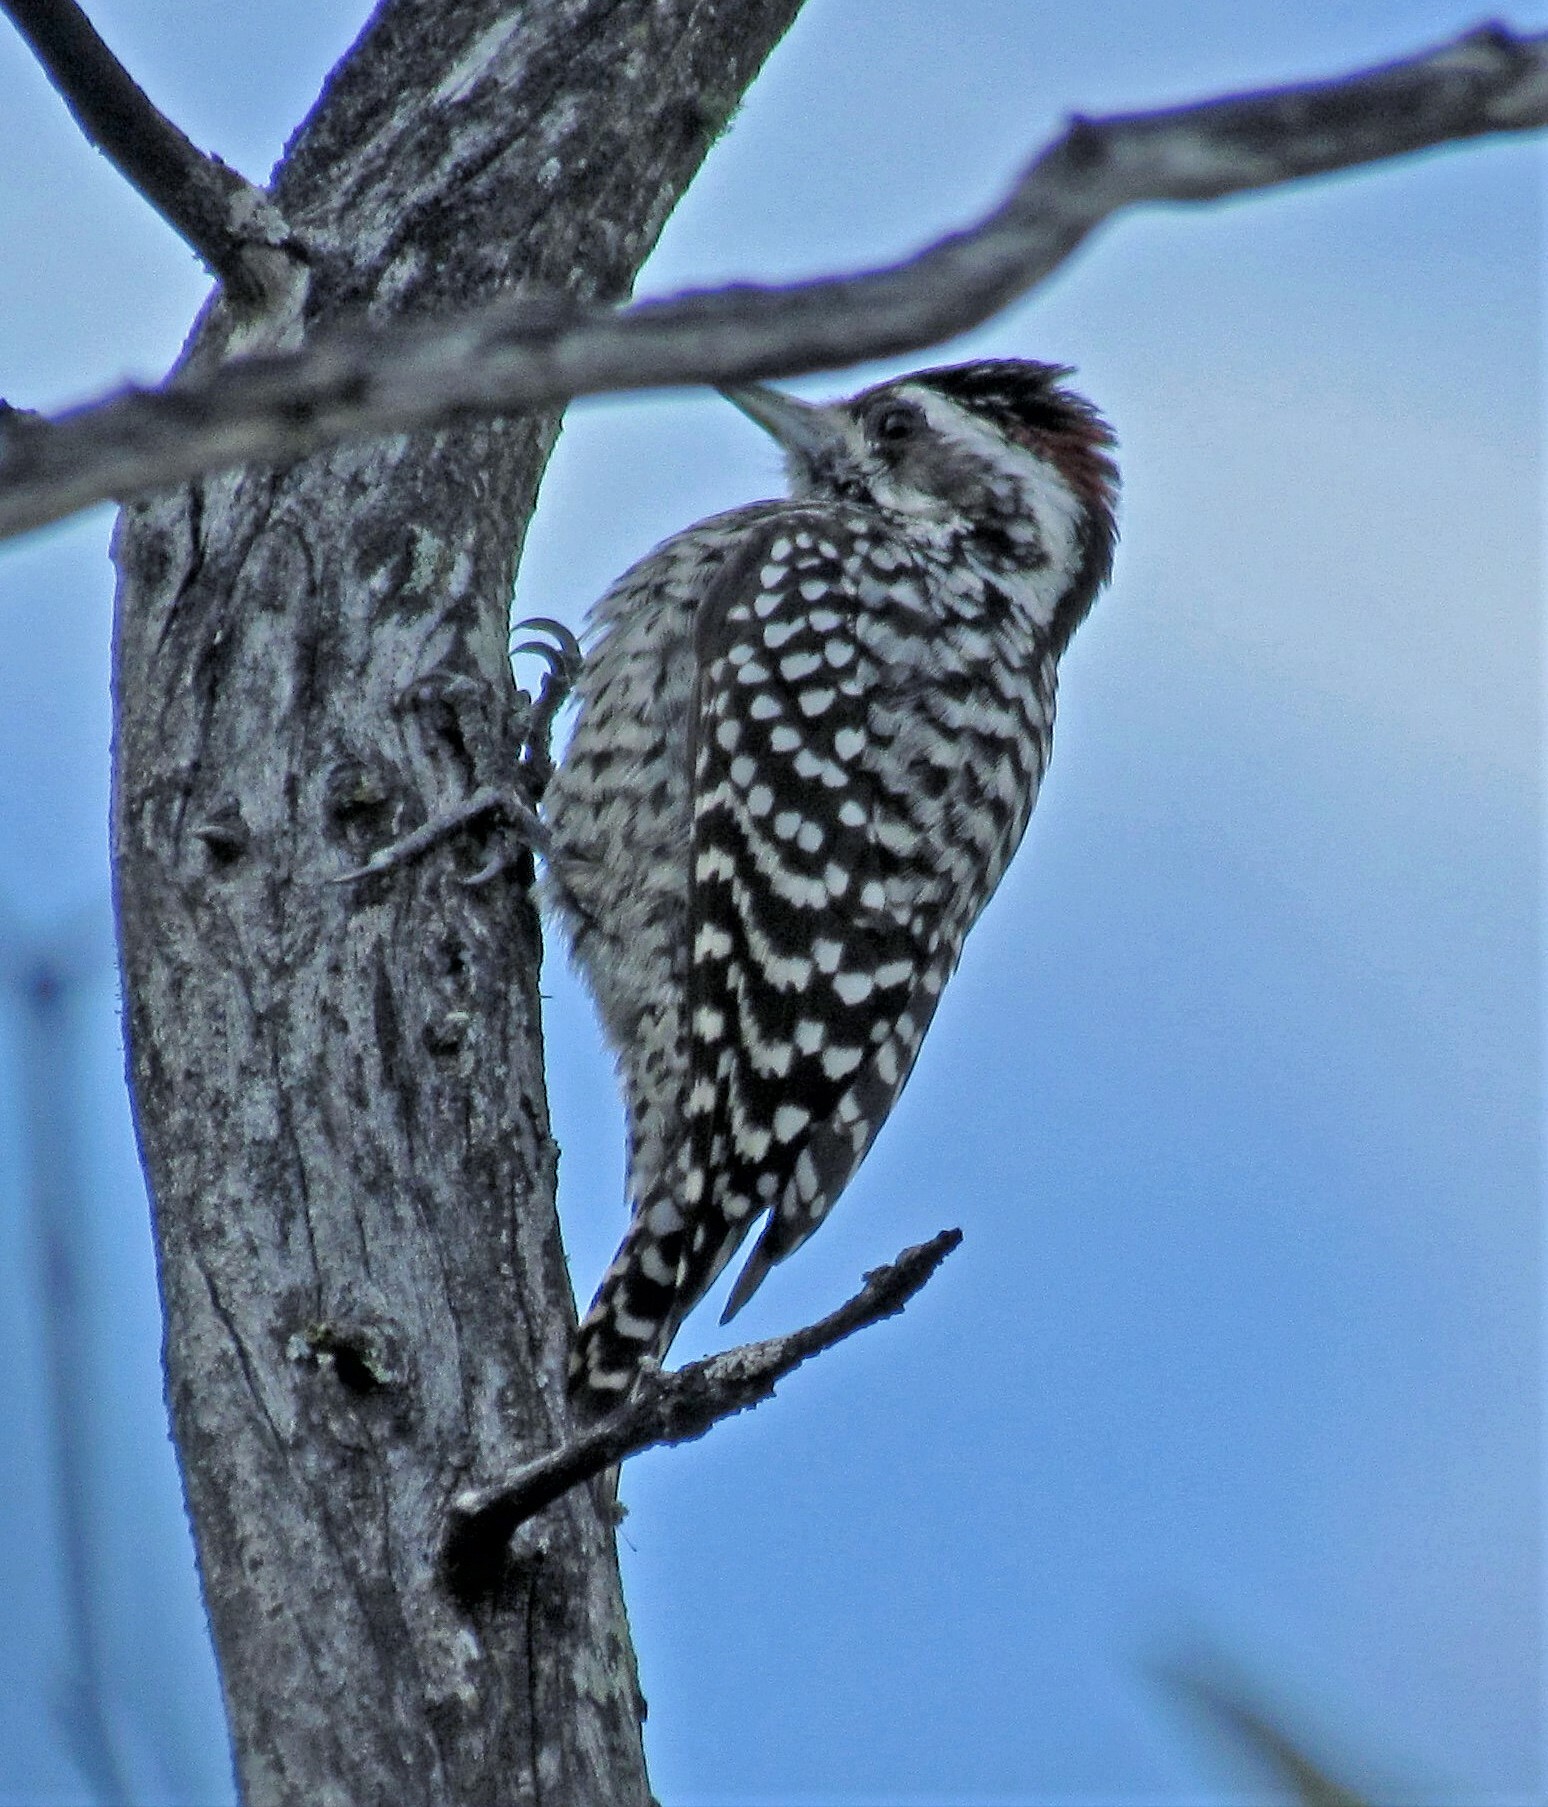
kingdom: Animalia
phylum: Chordata
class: Aves
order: Piciformes
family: Picidae
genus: Veniliornis
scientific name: Veniliornis mixtus
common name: Checkered woodpecker
